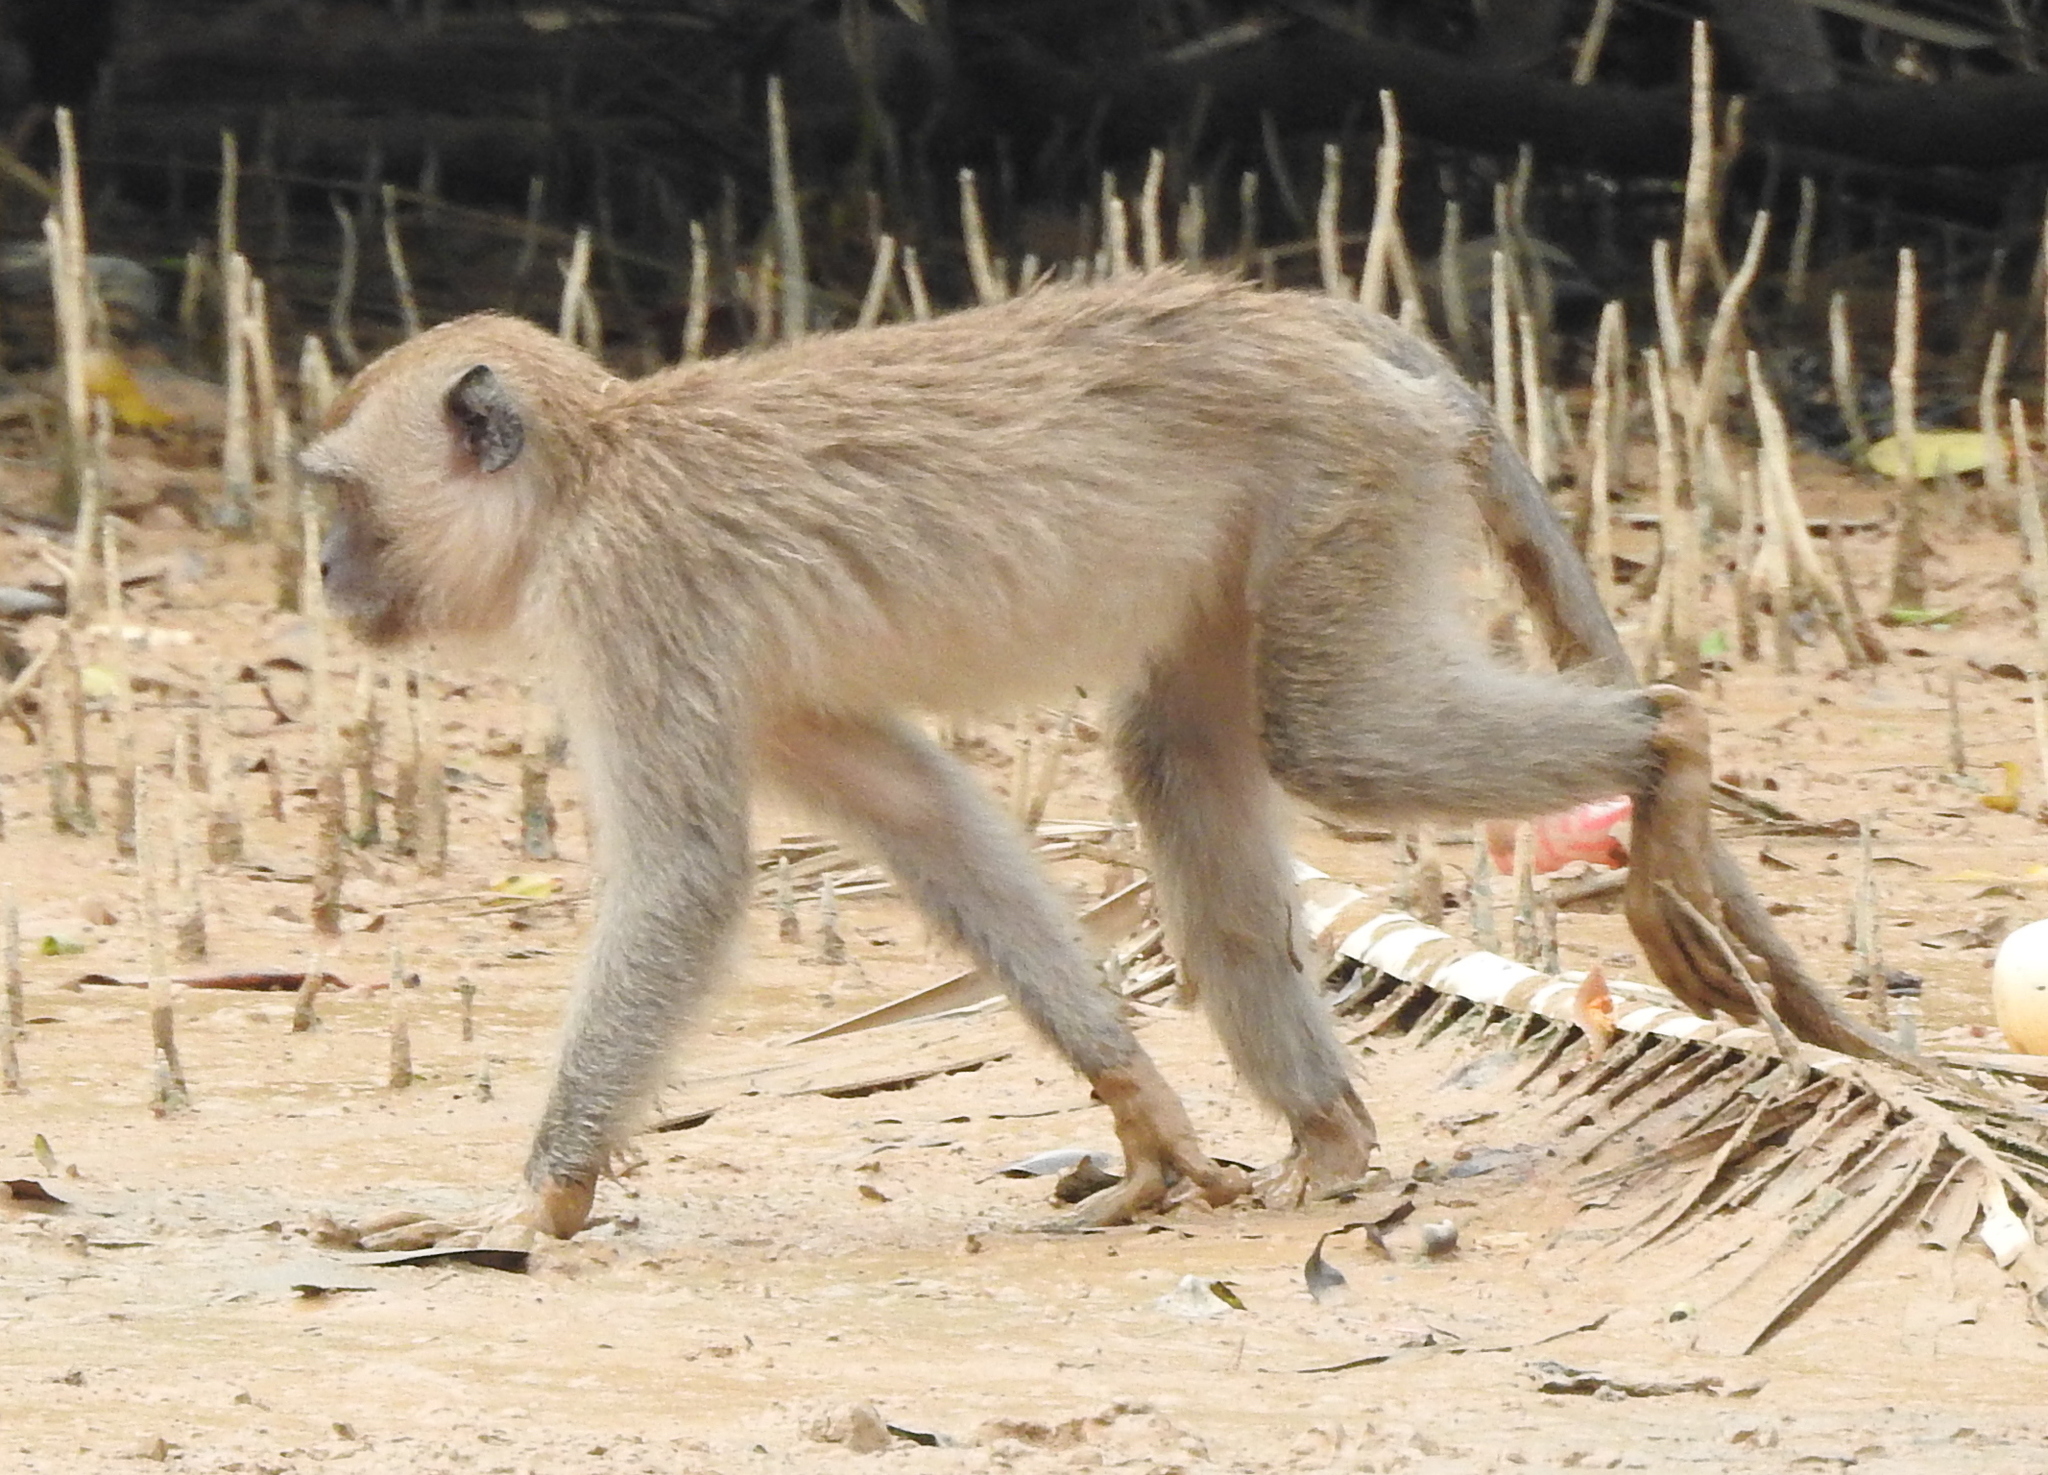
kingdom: Animalia
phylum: Chordata
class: Mammalia
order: Primates
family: Cercopithecidae
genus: Macaca
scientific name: Macaca fascicularis
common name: Crab-eating macaque
